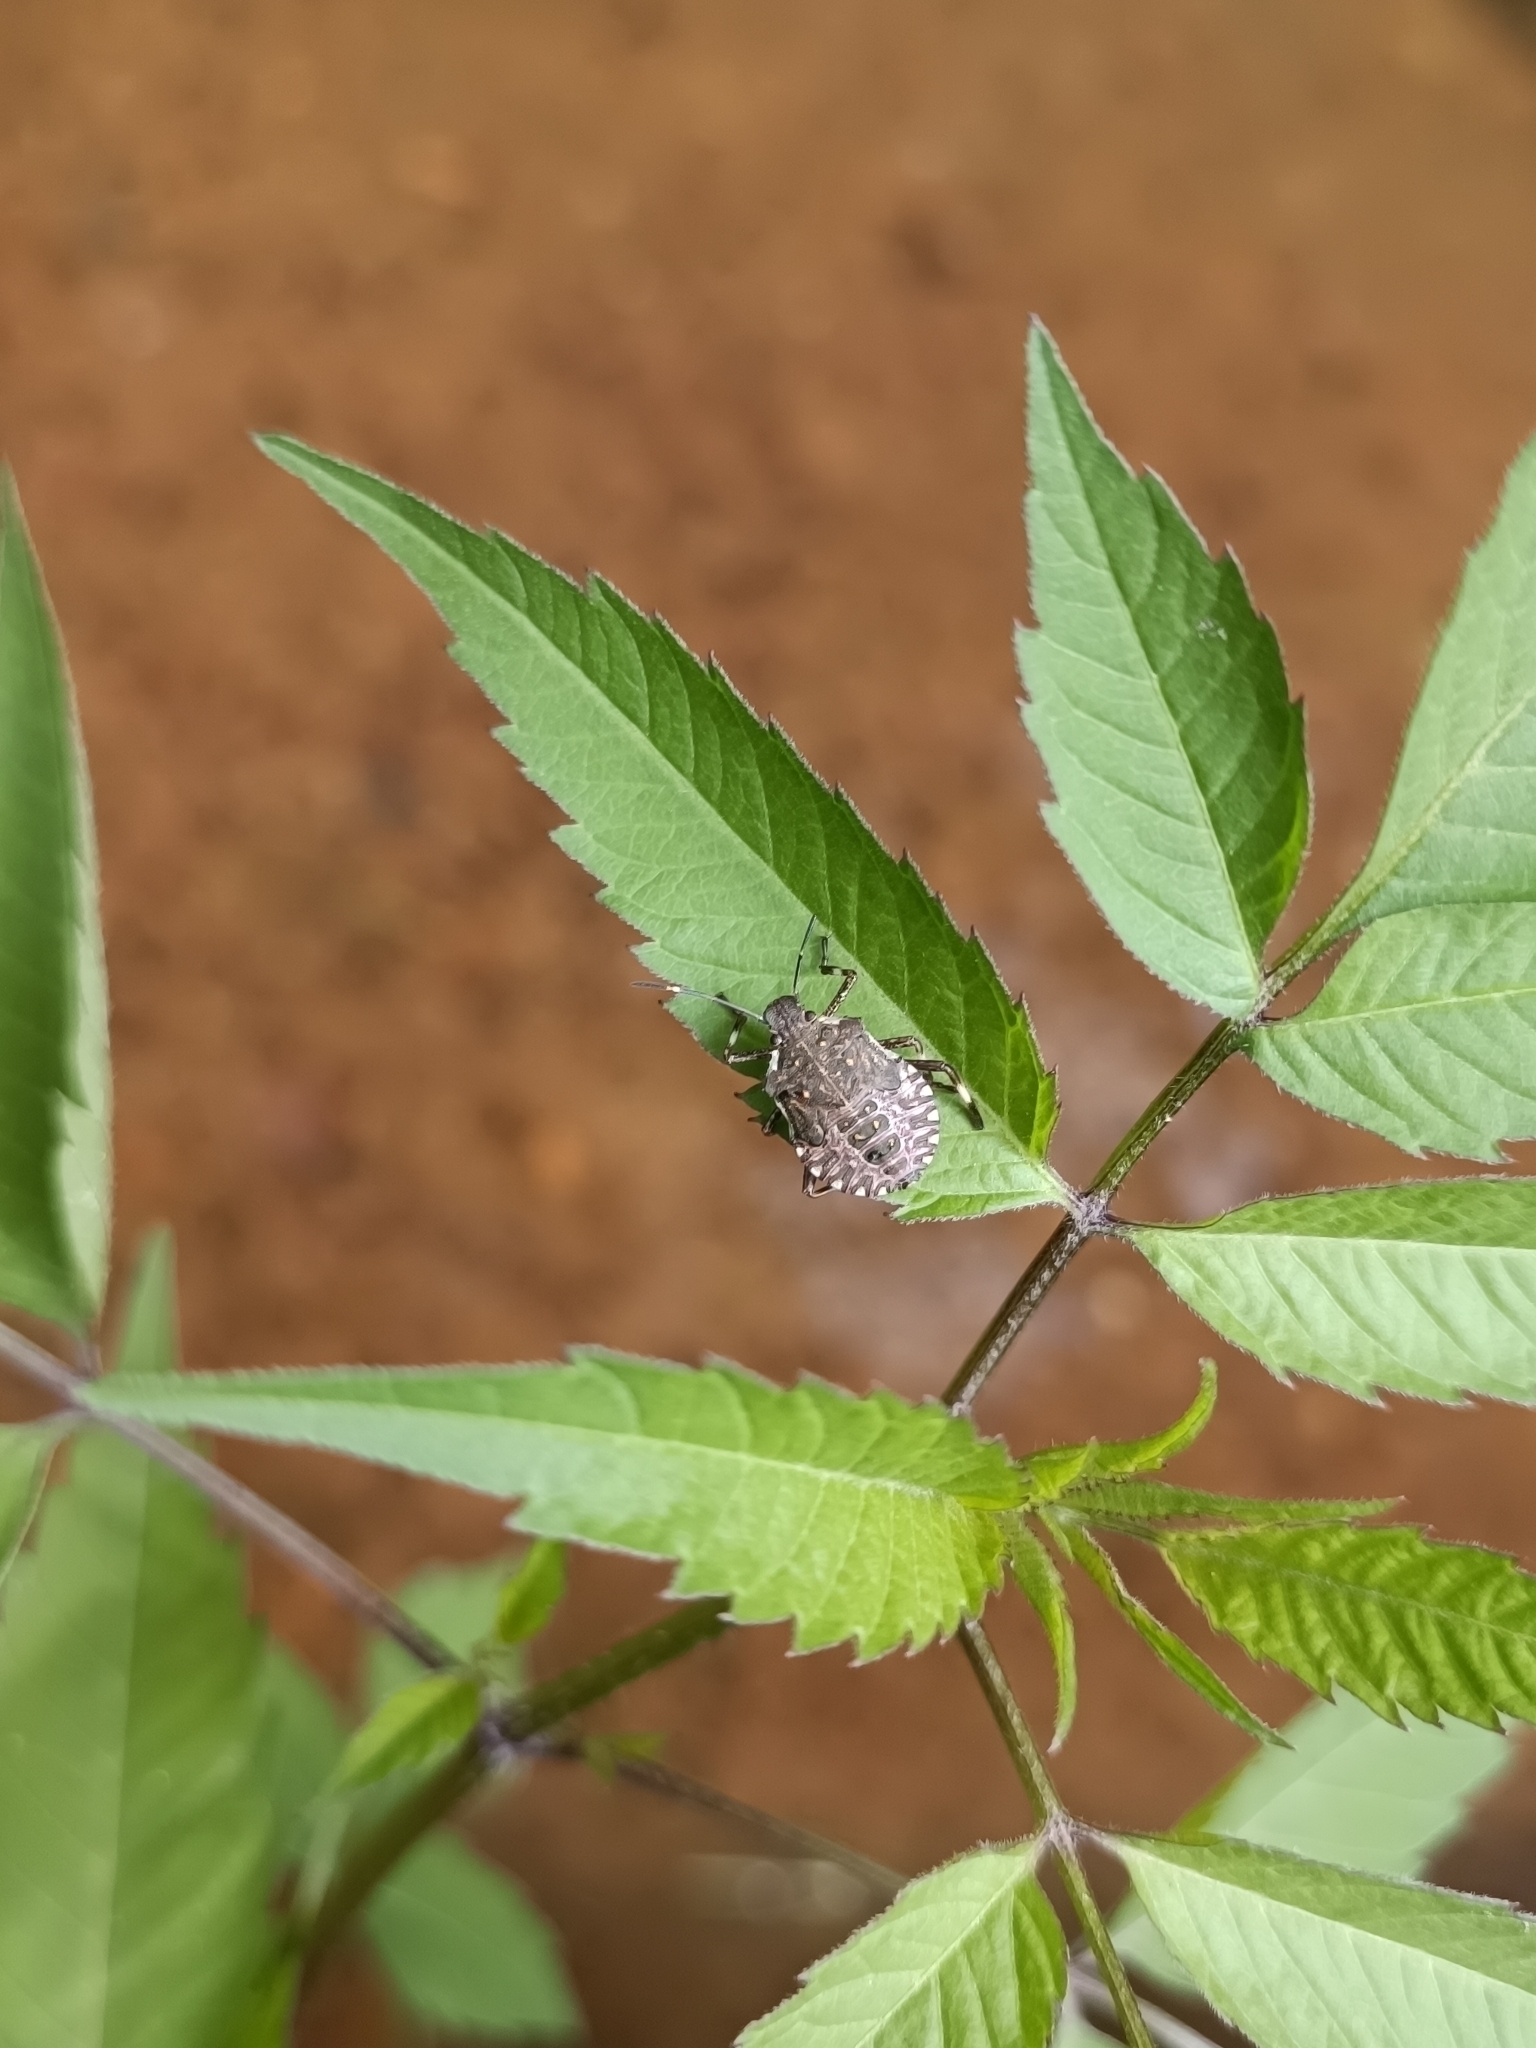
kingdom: Animalia
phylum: Arthropoda
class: Insecta
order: Hemiptera
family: Pentatomidae
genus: Halyomorpha
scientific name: Halyomorpha halys
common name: Brown marmorated stink bug
